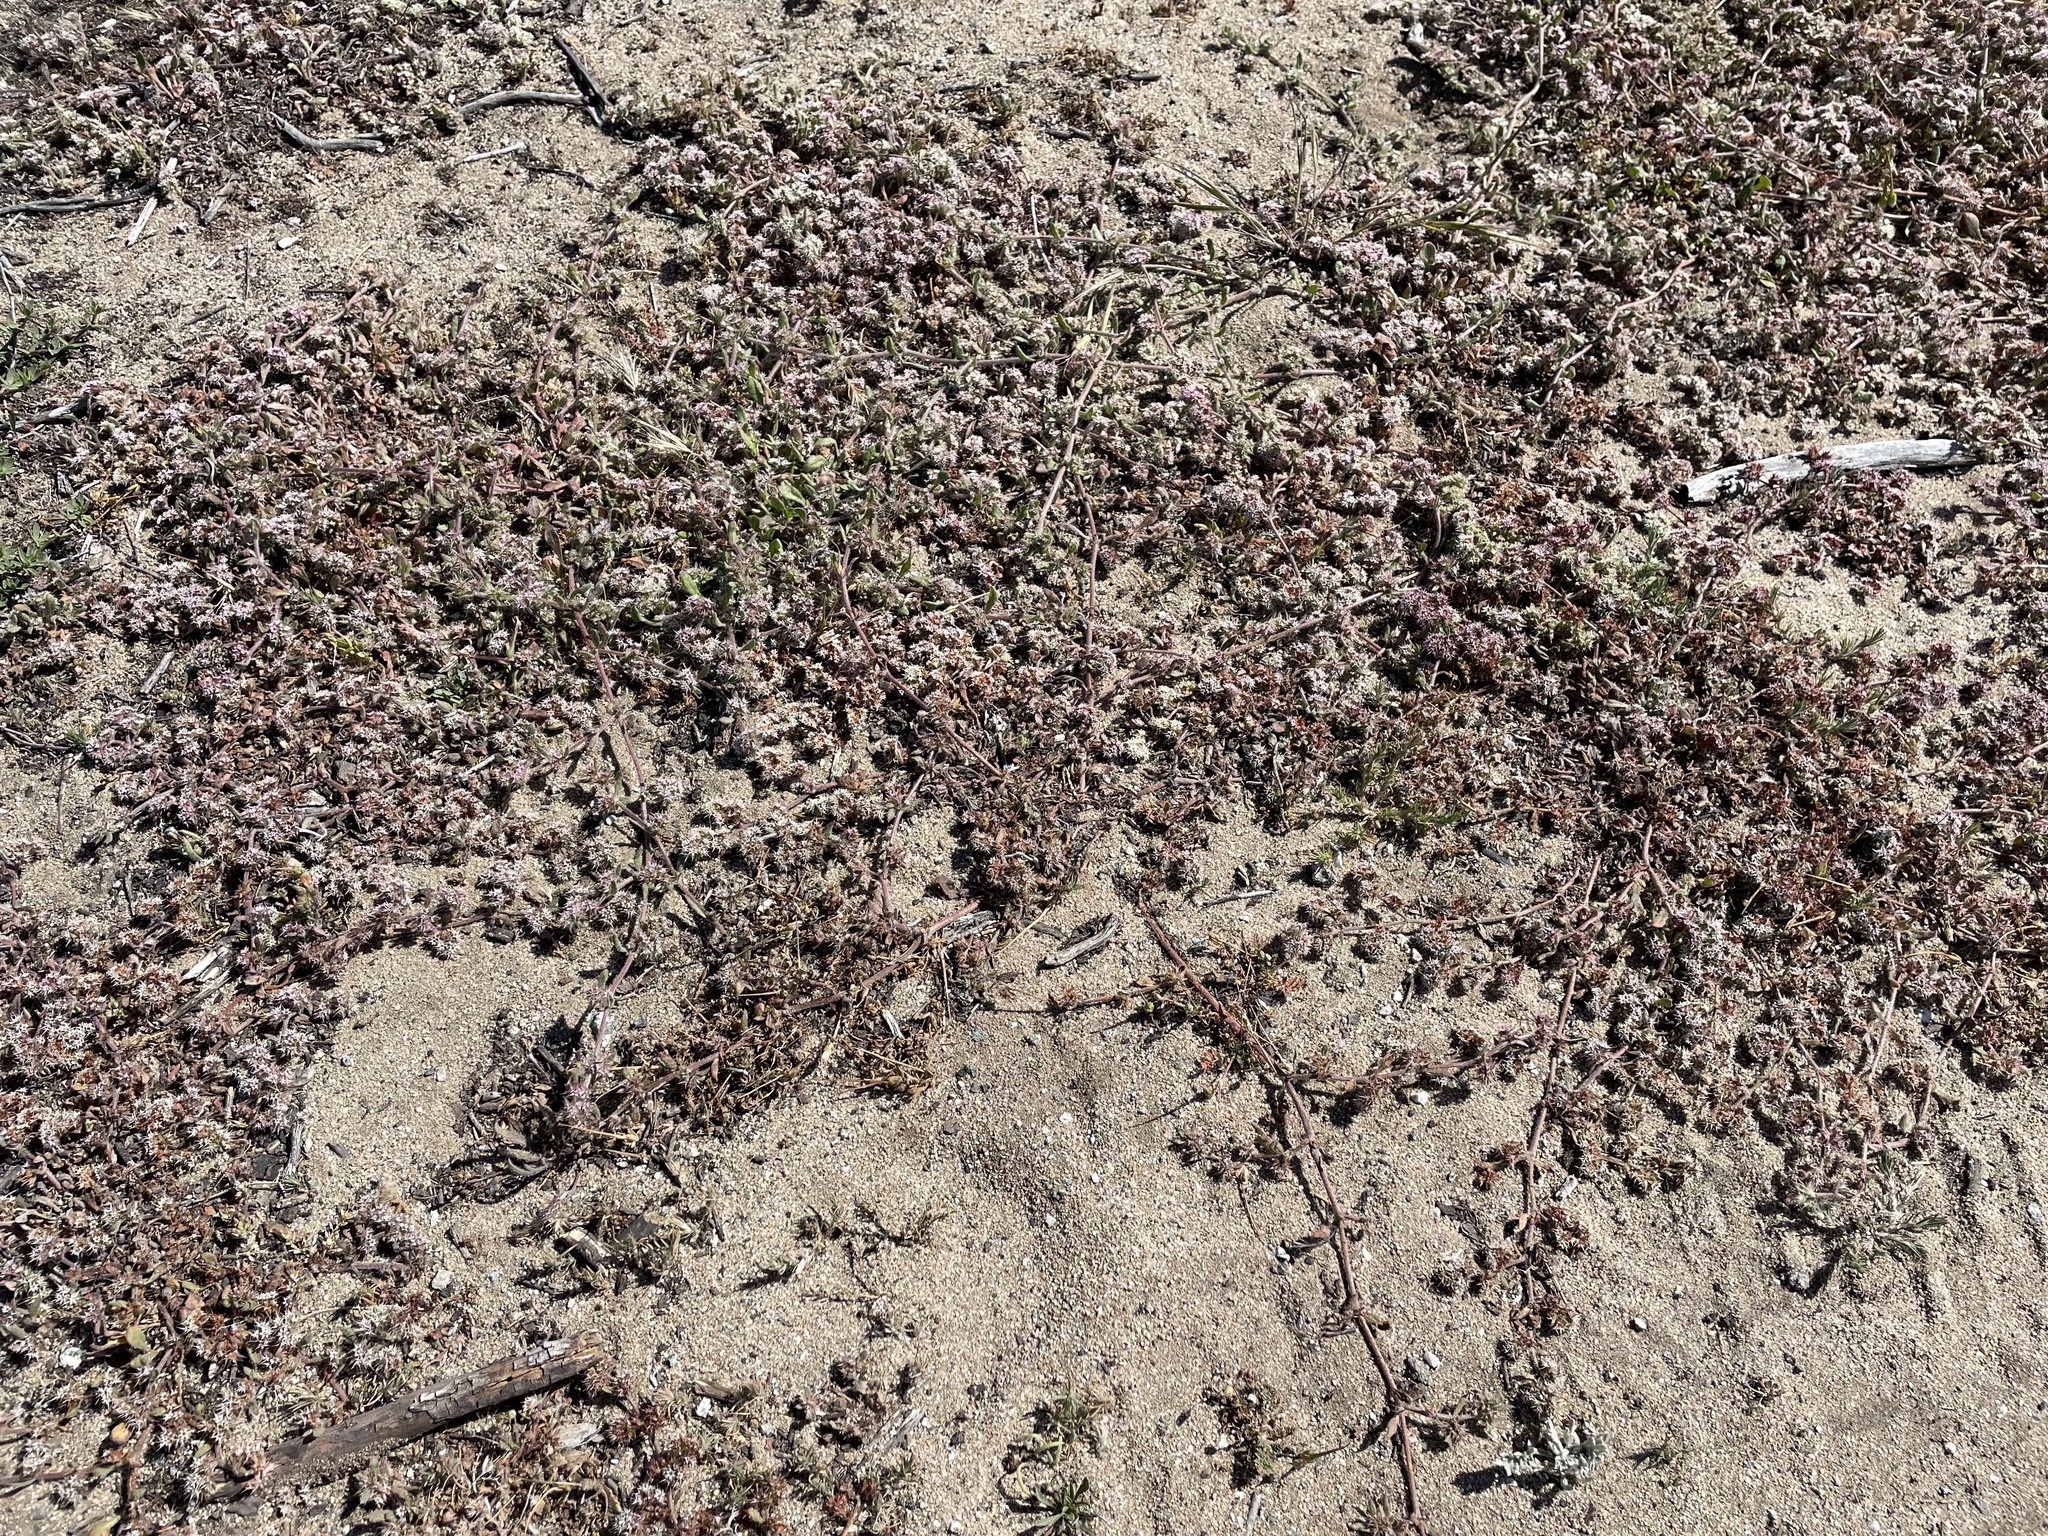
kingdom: Plantae
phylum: Tracheophyta
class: Magnoliopsida
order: Caryophyllales
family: Polygonaceae
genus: Chorizanthe
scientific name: Chorizanthe pungens
